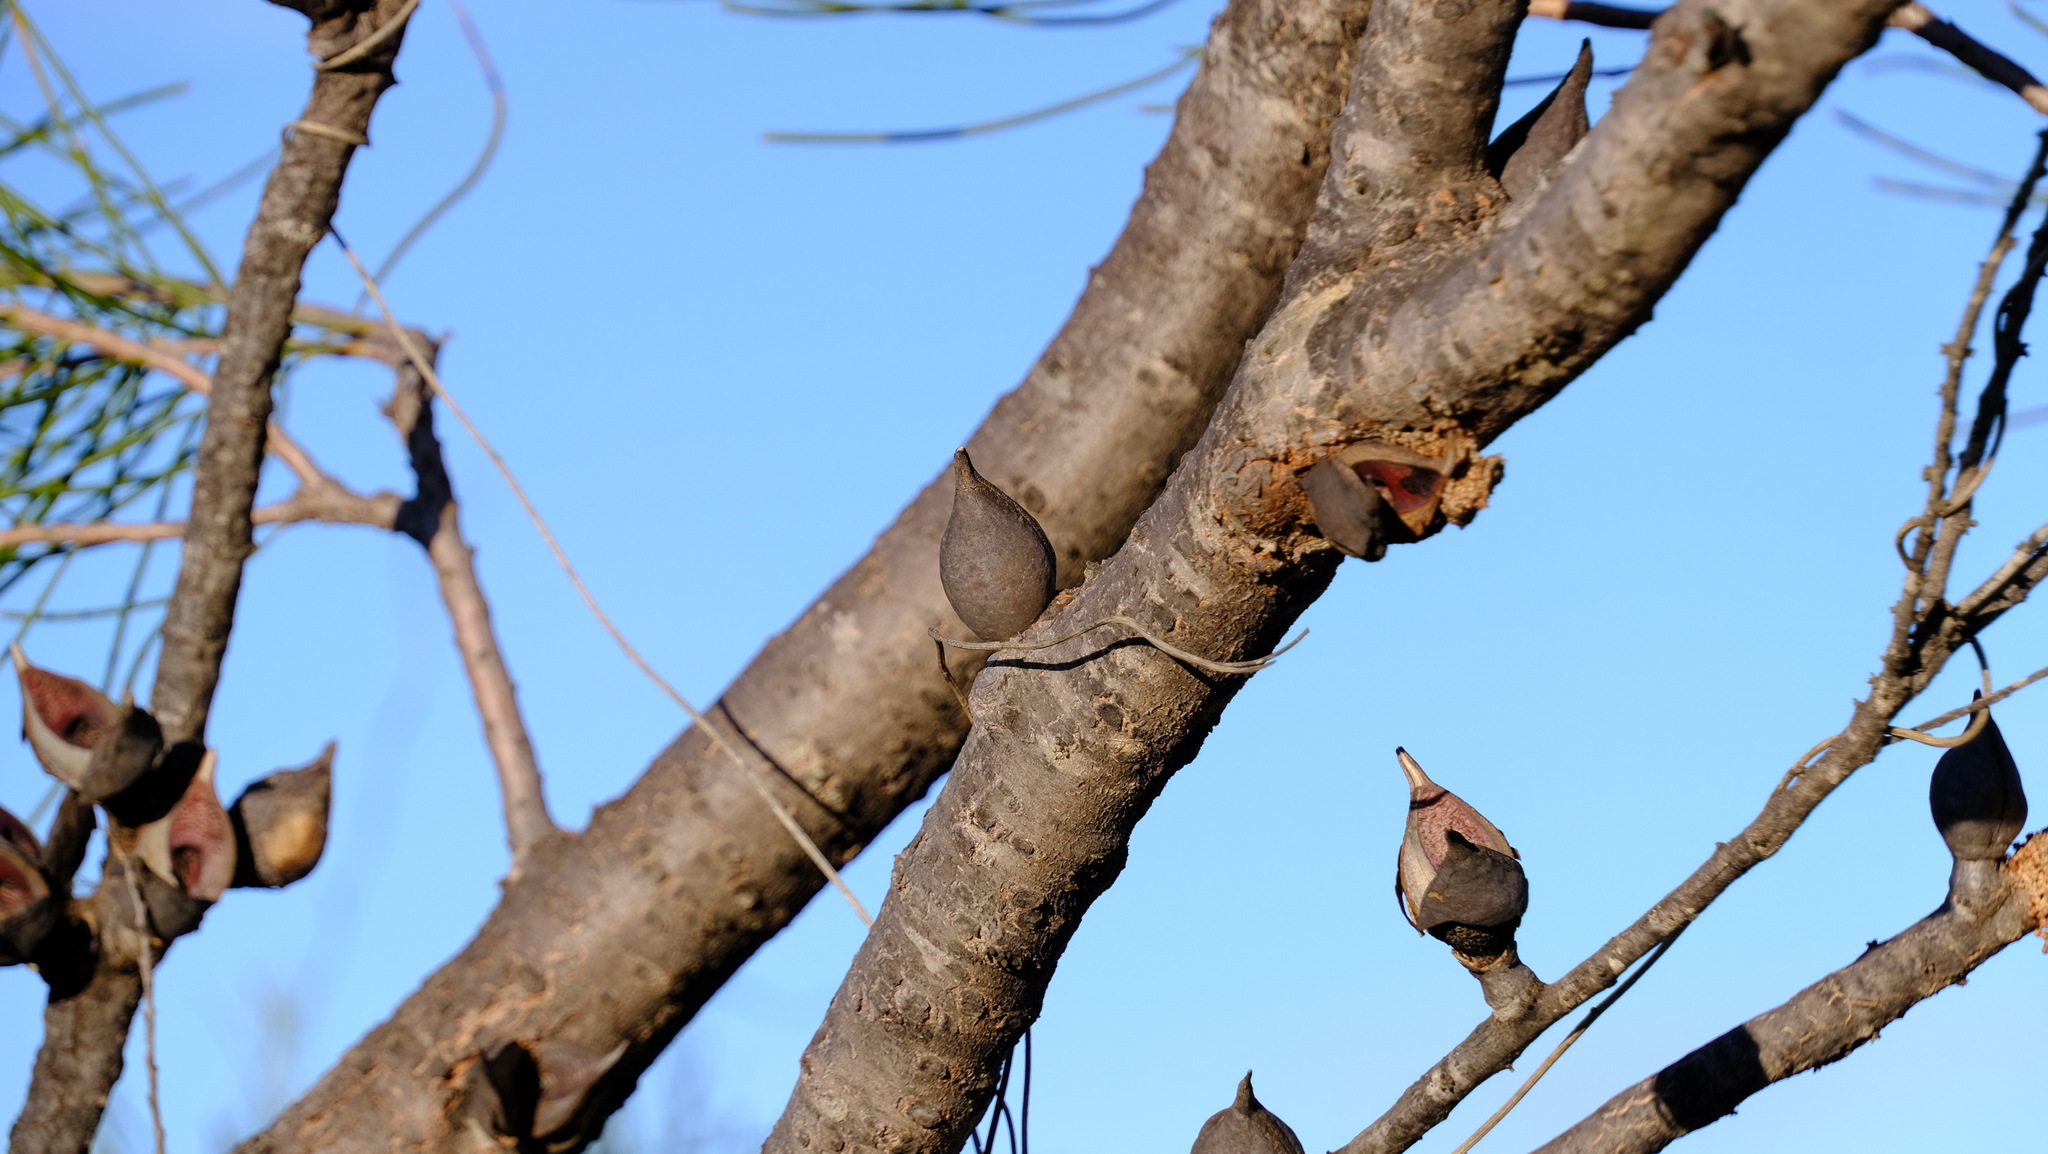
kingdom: Plantae
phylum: Tracheophyta
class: Magnoliopsida
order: Proteales
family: Proteaceae
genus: Hakea
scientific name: Hakea orthorrhyncha
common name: Bird beak hakea
